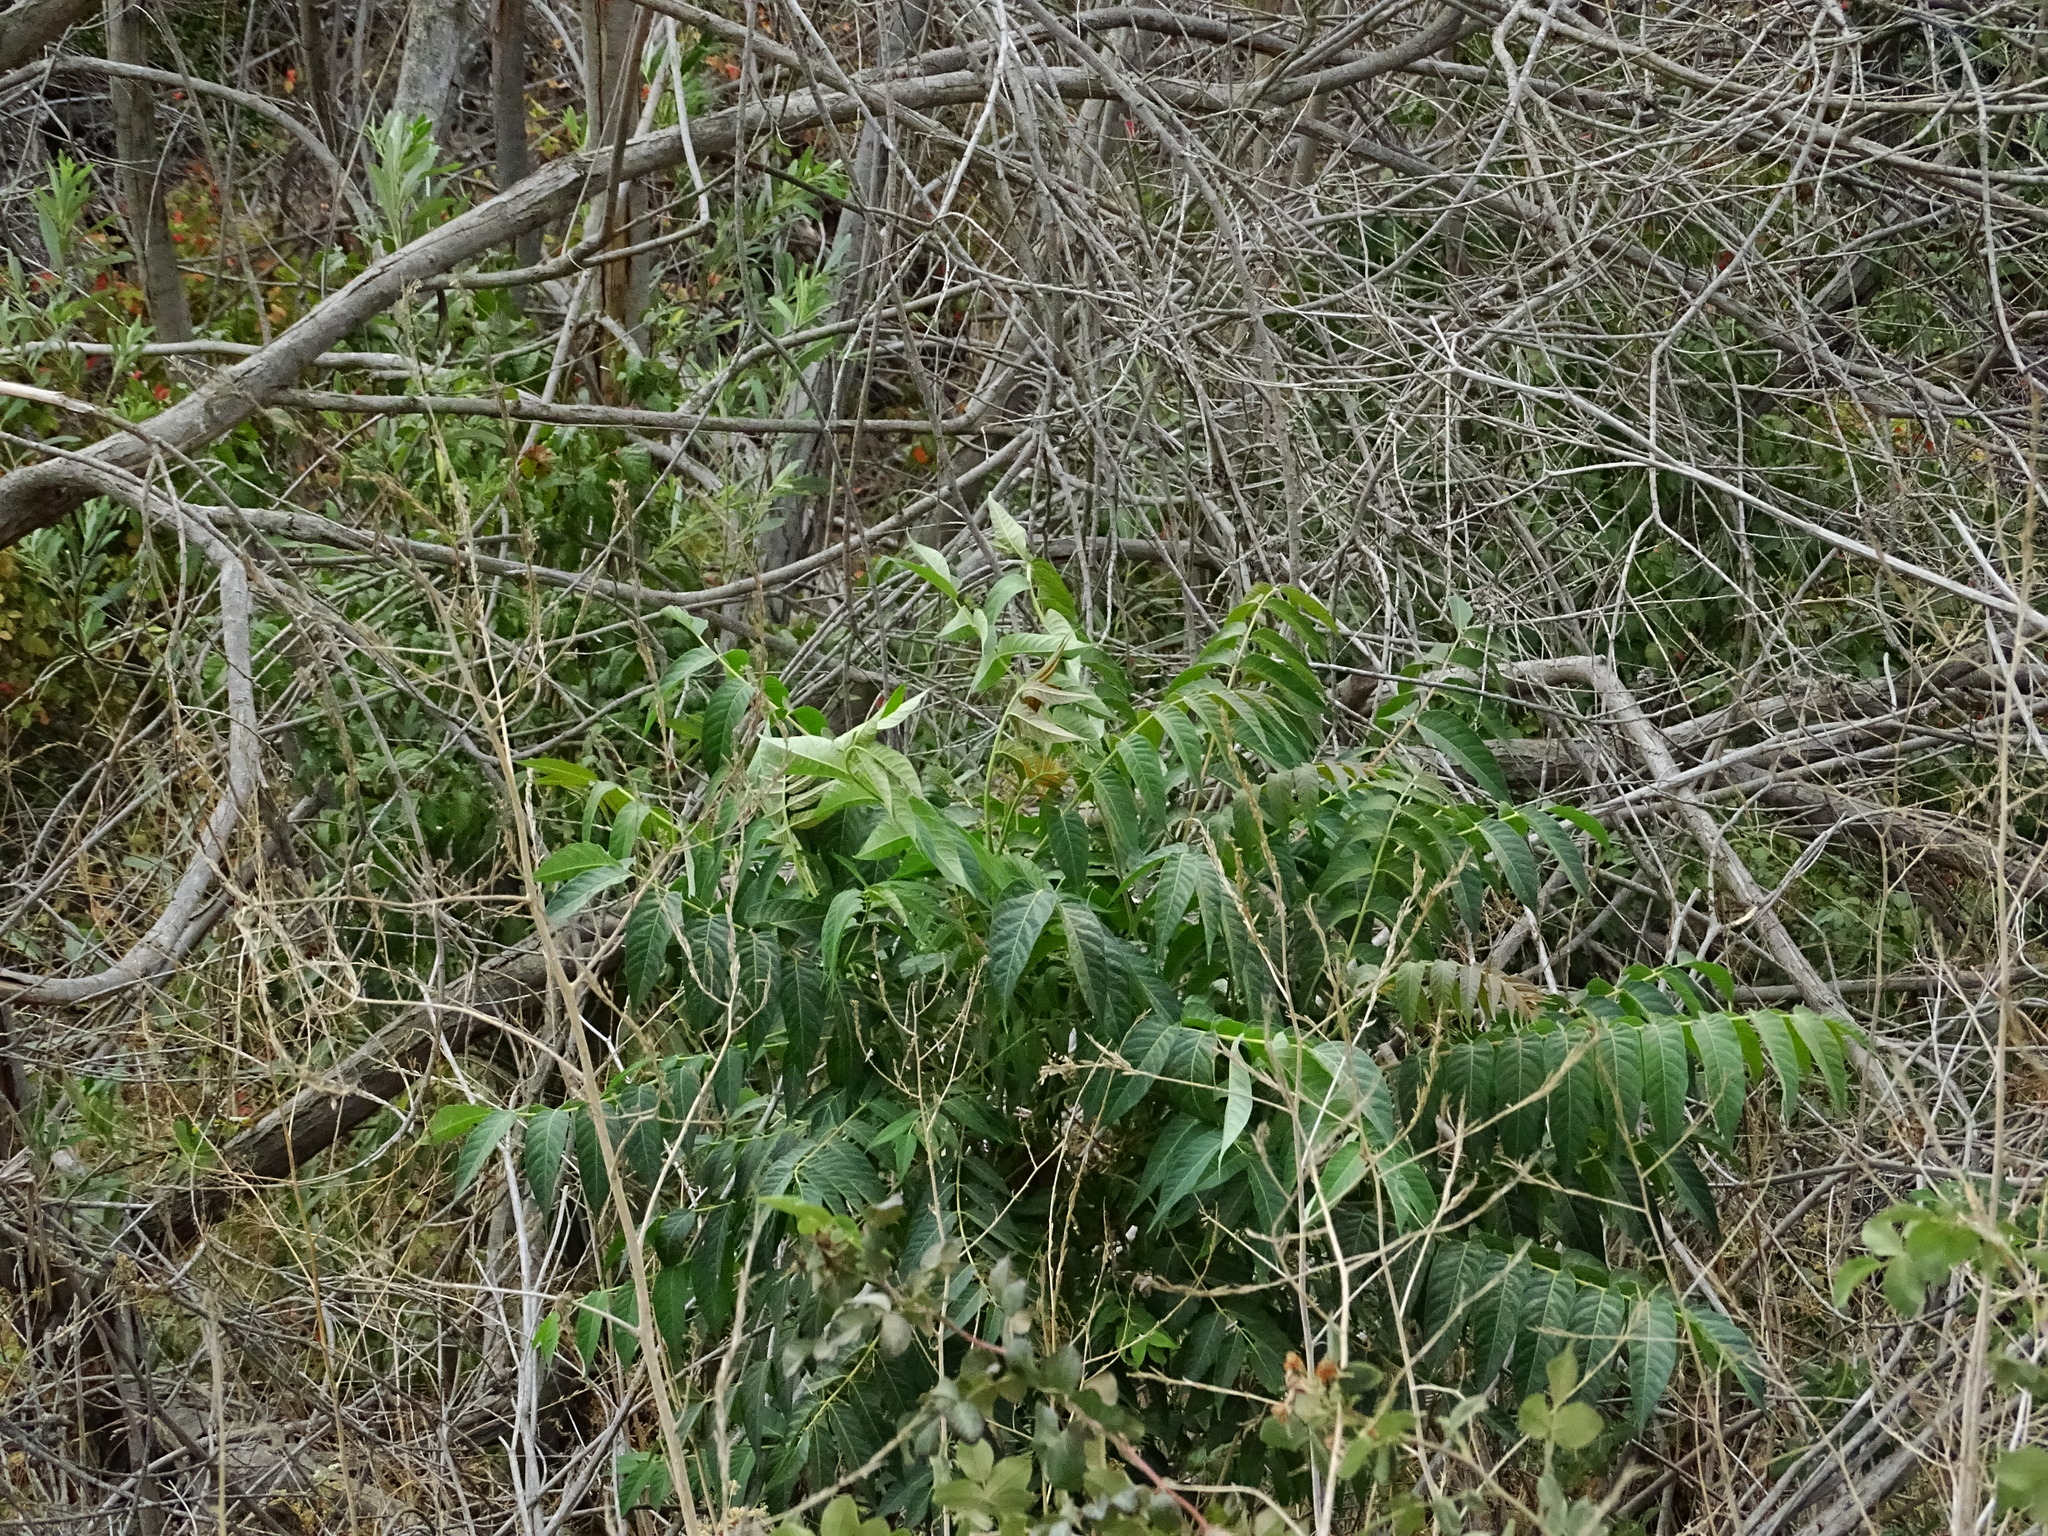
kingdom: Plantae
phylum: Tracheophyta
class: Magnoliopsida
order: Sapindales
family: Simaroubaceae
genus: Ailanthus
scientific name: Ailanthus altissima
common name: Tree-of-heaven
